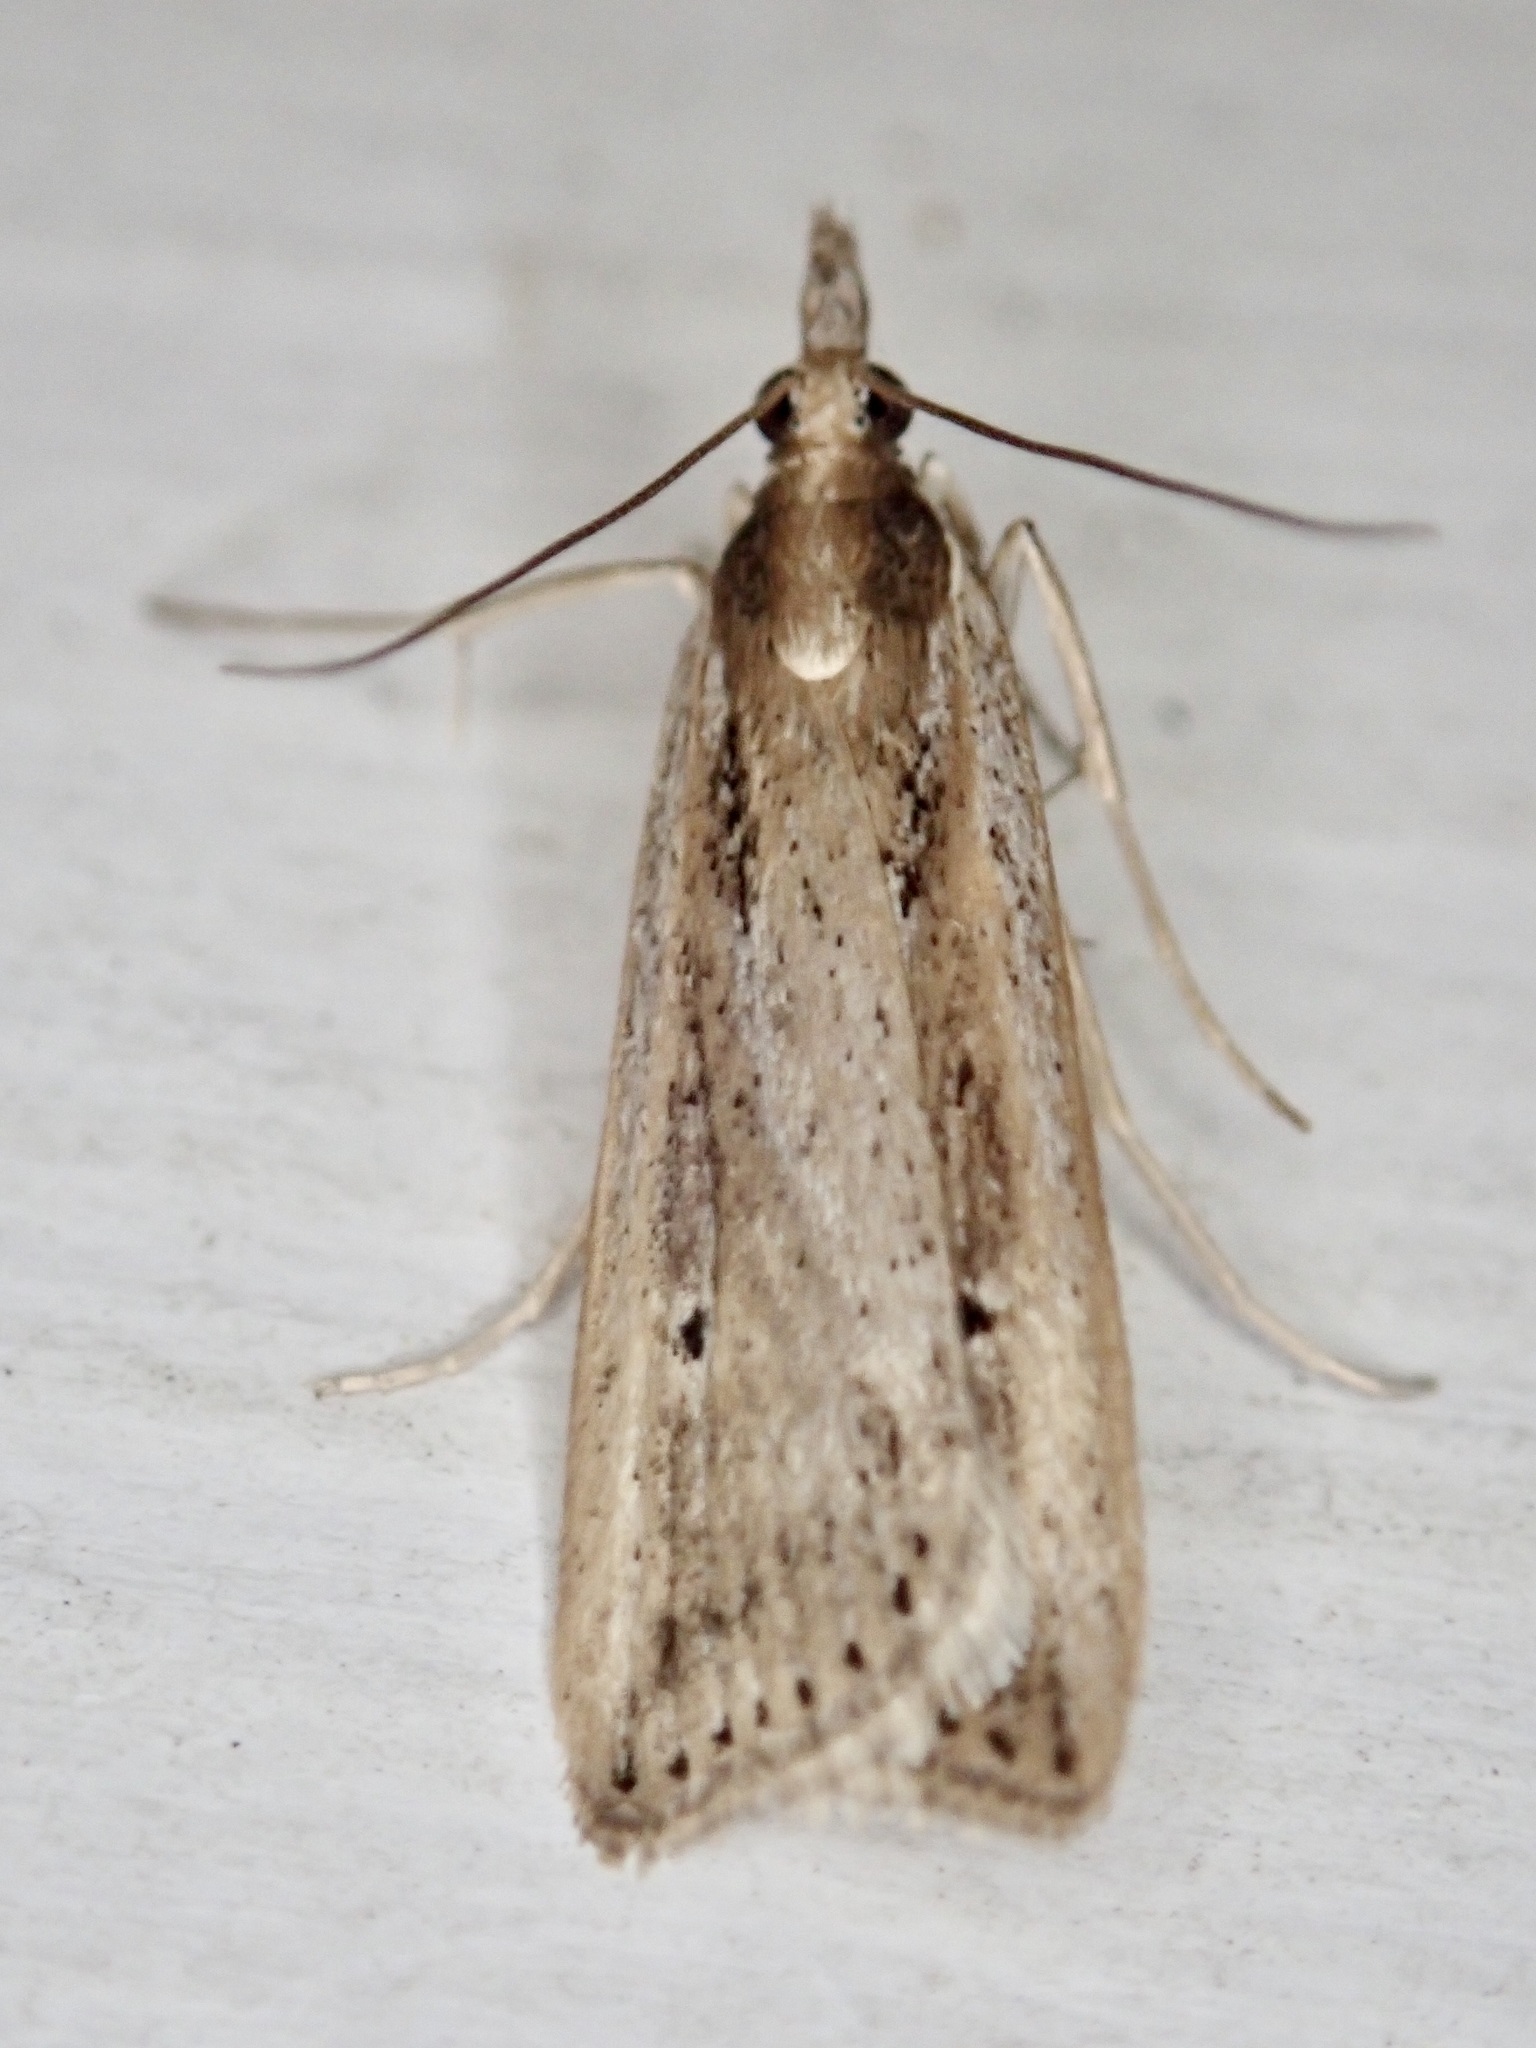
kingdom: Animalia
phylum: Arthropoda
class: Insecta
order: Lepidoptera
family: Crambidae
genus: Eudonia
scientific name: Eudonia sabulosella
